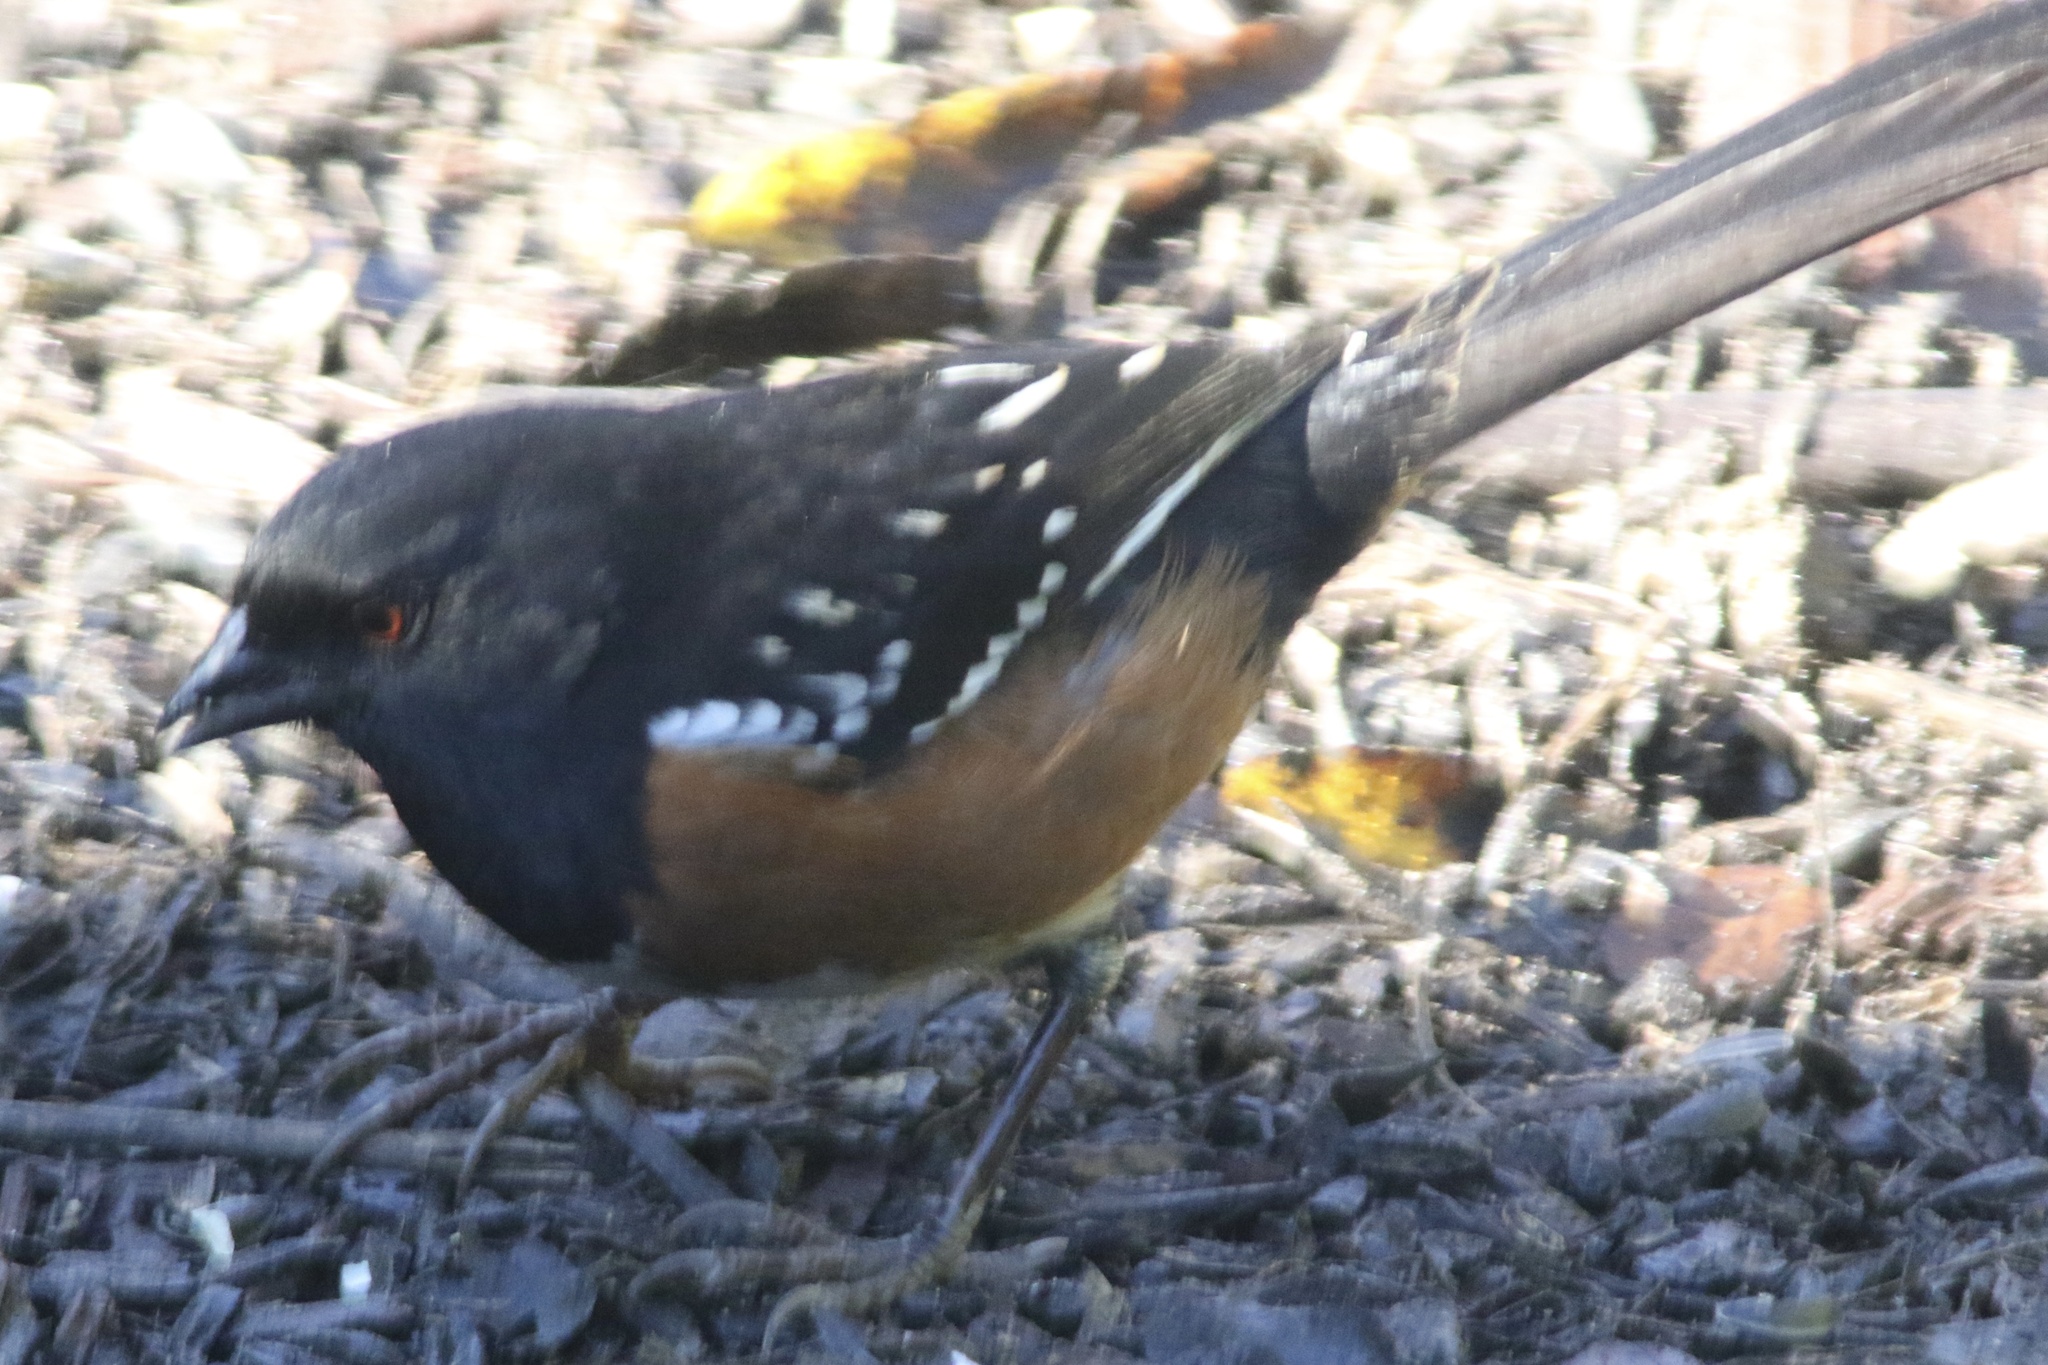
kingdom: Animalia
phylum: Chordata
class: Aves
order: Passeriformes
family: Passerellidae
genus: Pipilo
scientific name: Pipilo maculatus
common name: Spotted towhee
